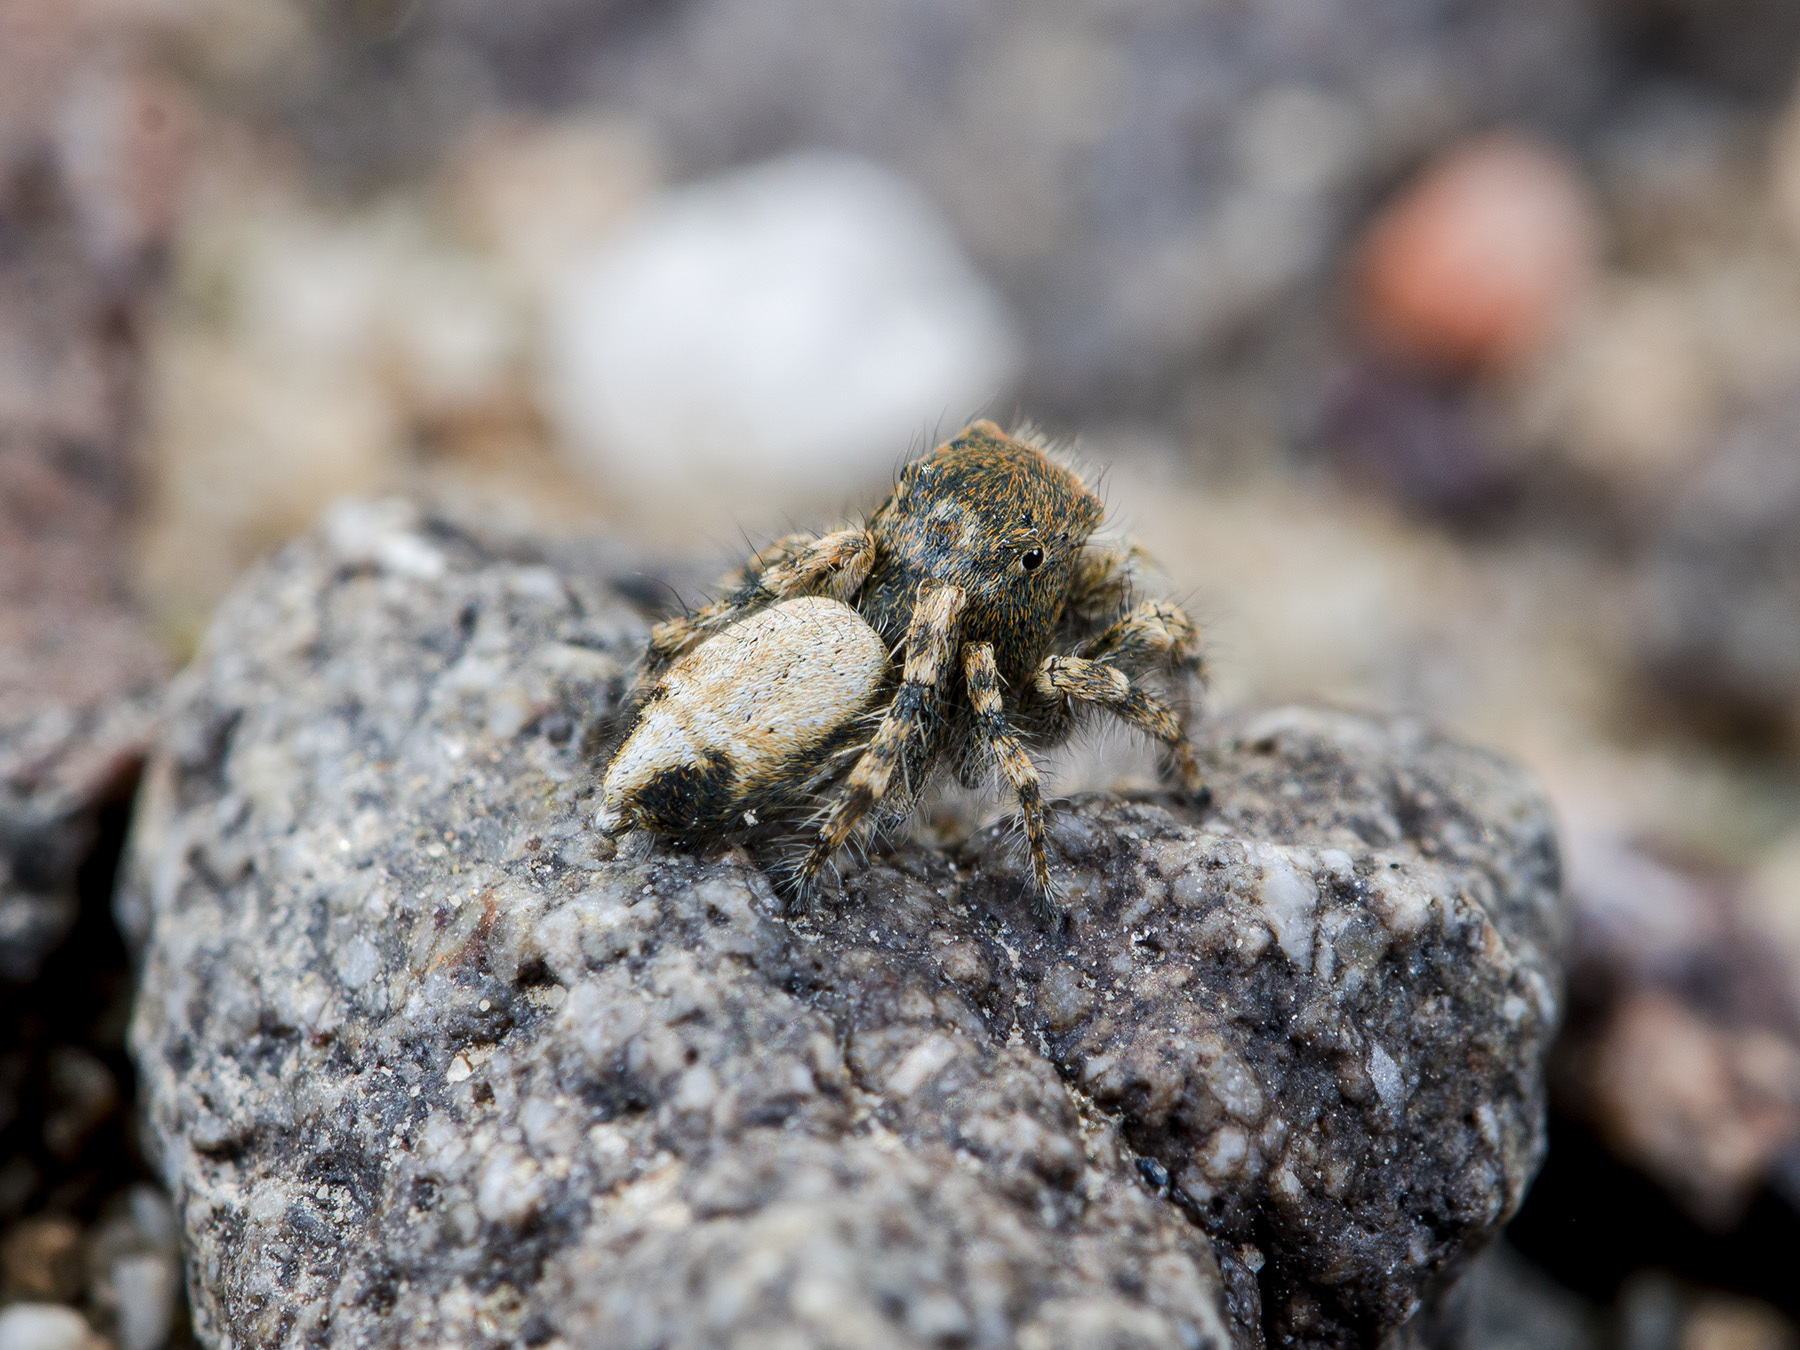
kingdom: Animalia
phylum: Arthropoda
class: Arachnida
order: Araneae
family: Salticidae
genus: Yllenus
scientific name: Yllenus zyuzini
